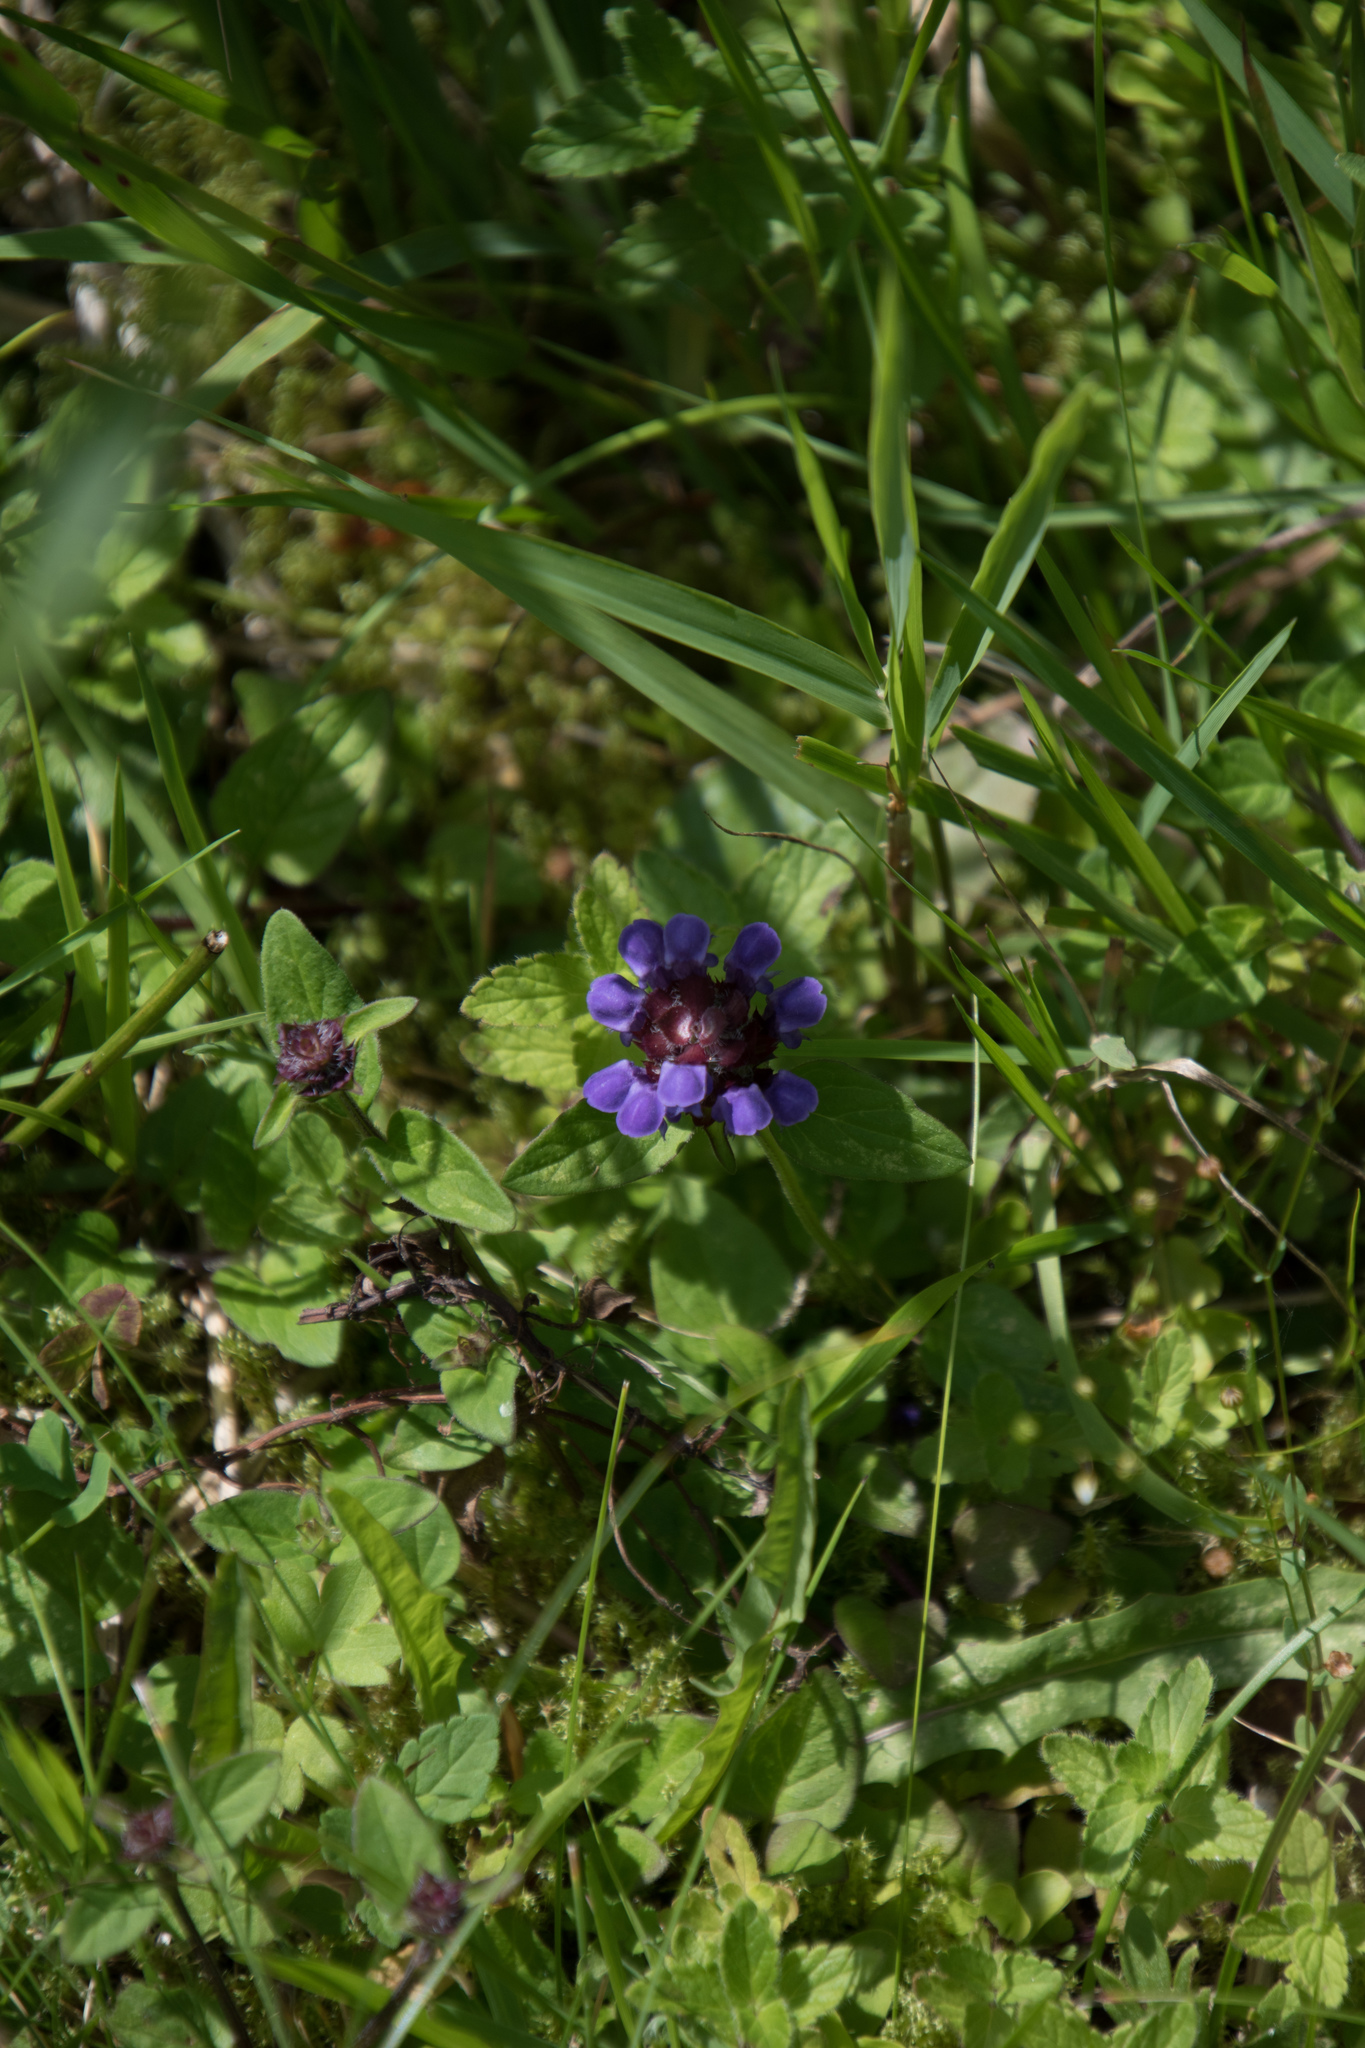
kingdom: Plantae
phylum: Tracheophyta
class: Magnoliopsida
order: Lamiales
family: Lamiaceae
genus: Prunella
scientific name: Prunella vulgaris
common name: Heal-all
